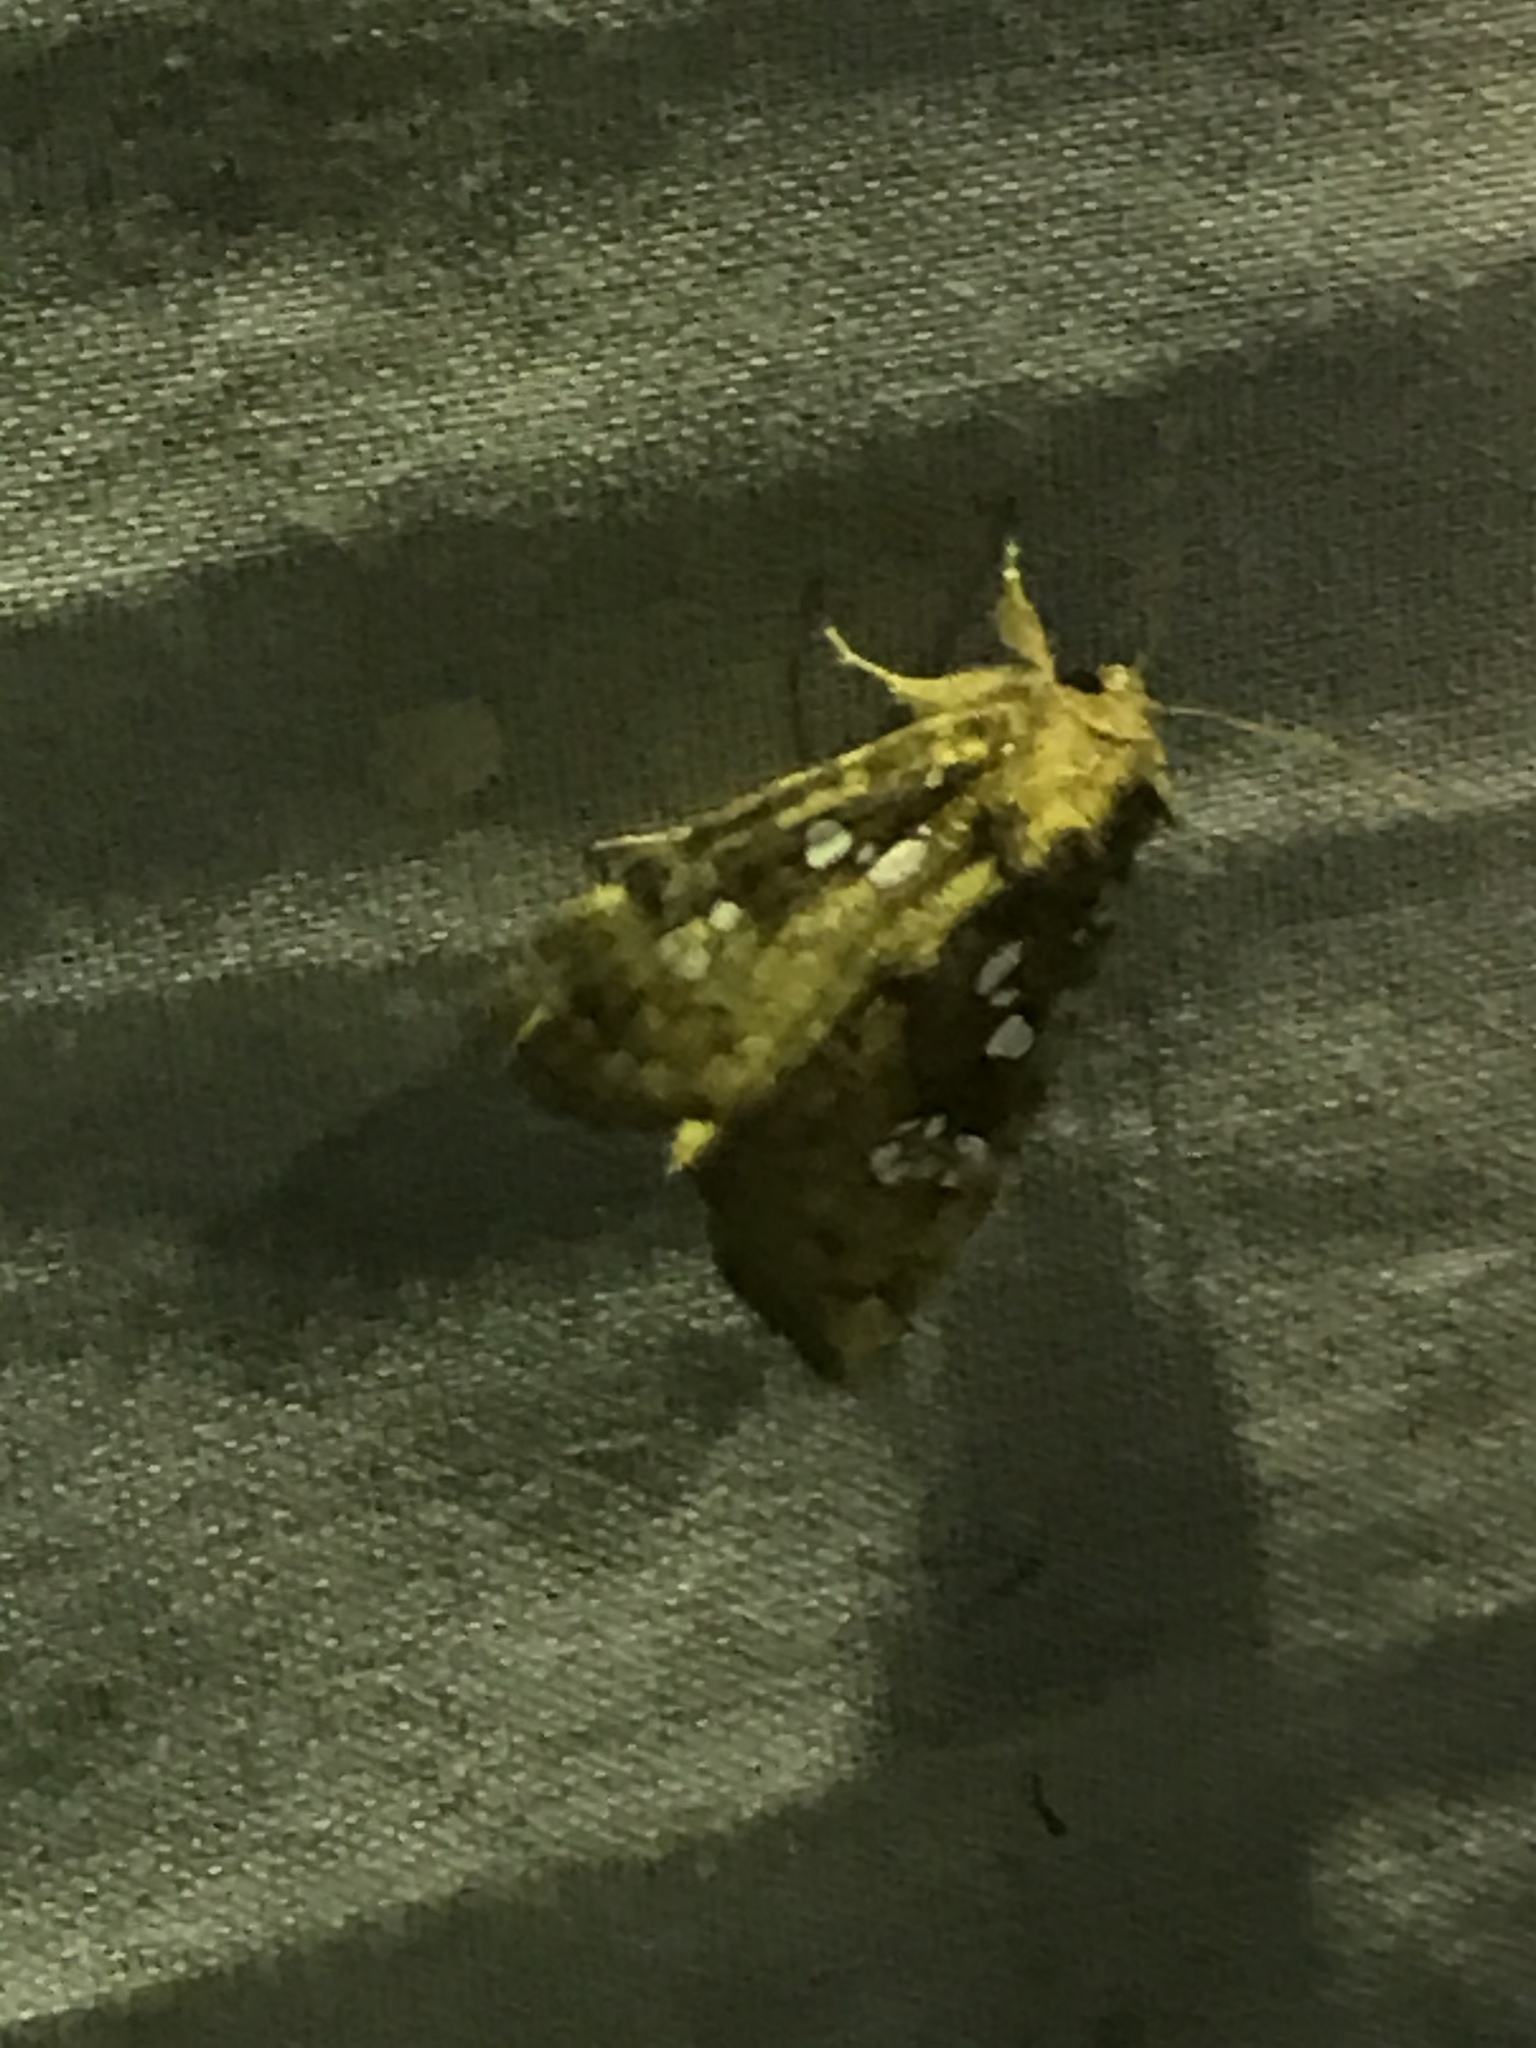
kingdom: Animalia
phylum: Arthropoda
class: Insecta
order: Lepidoptera
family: Noctuidae
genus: Papaipema
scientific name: Papaipema furcata
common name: Ash tip borer moth
